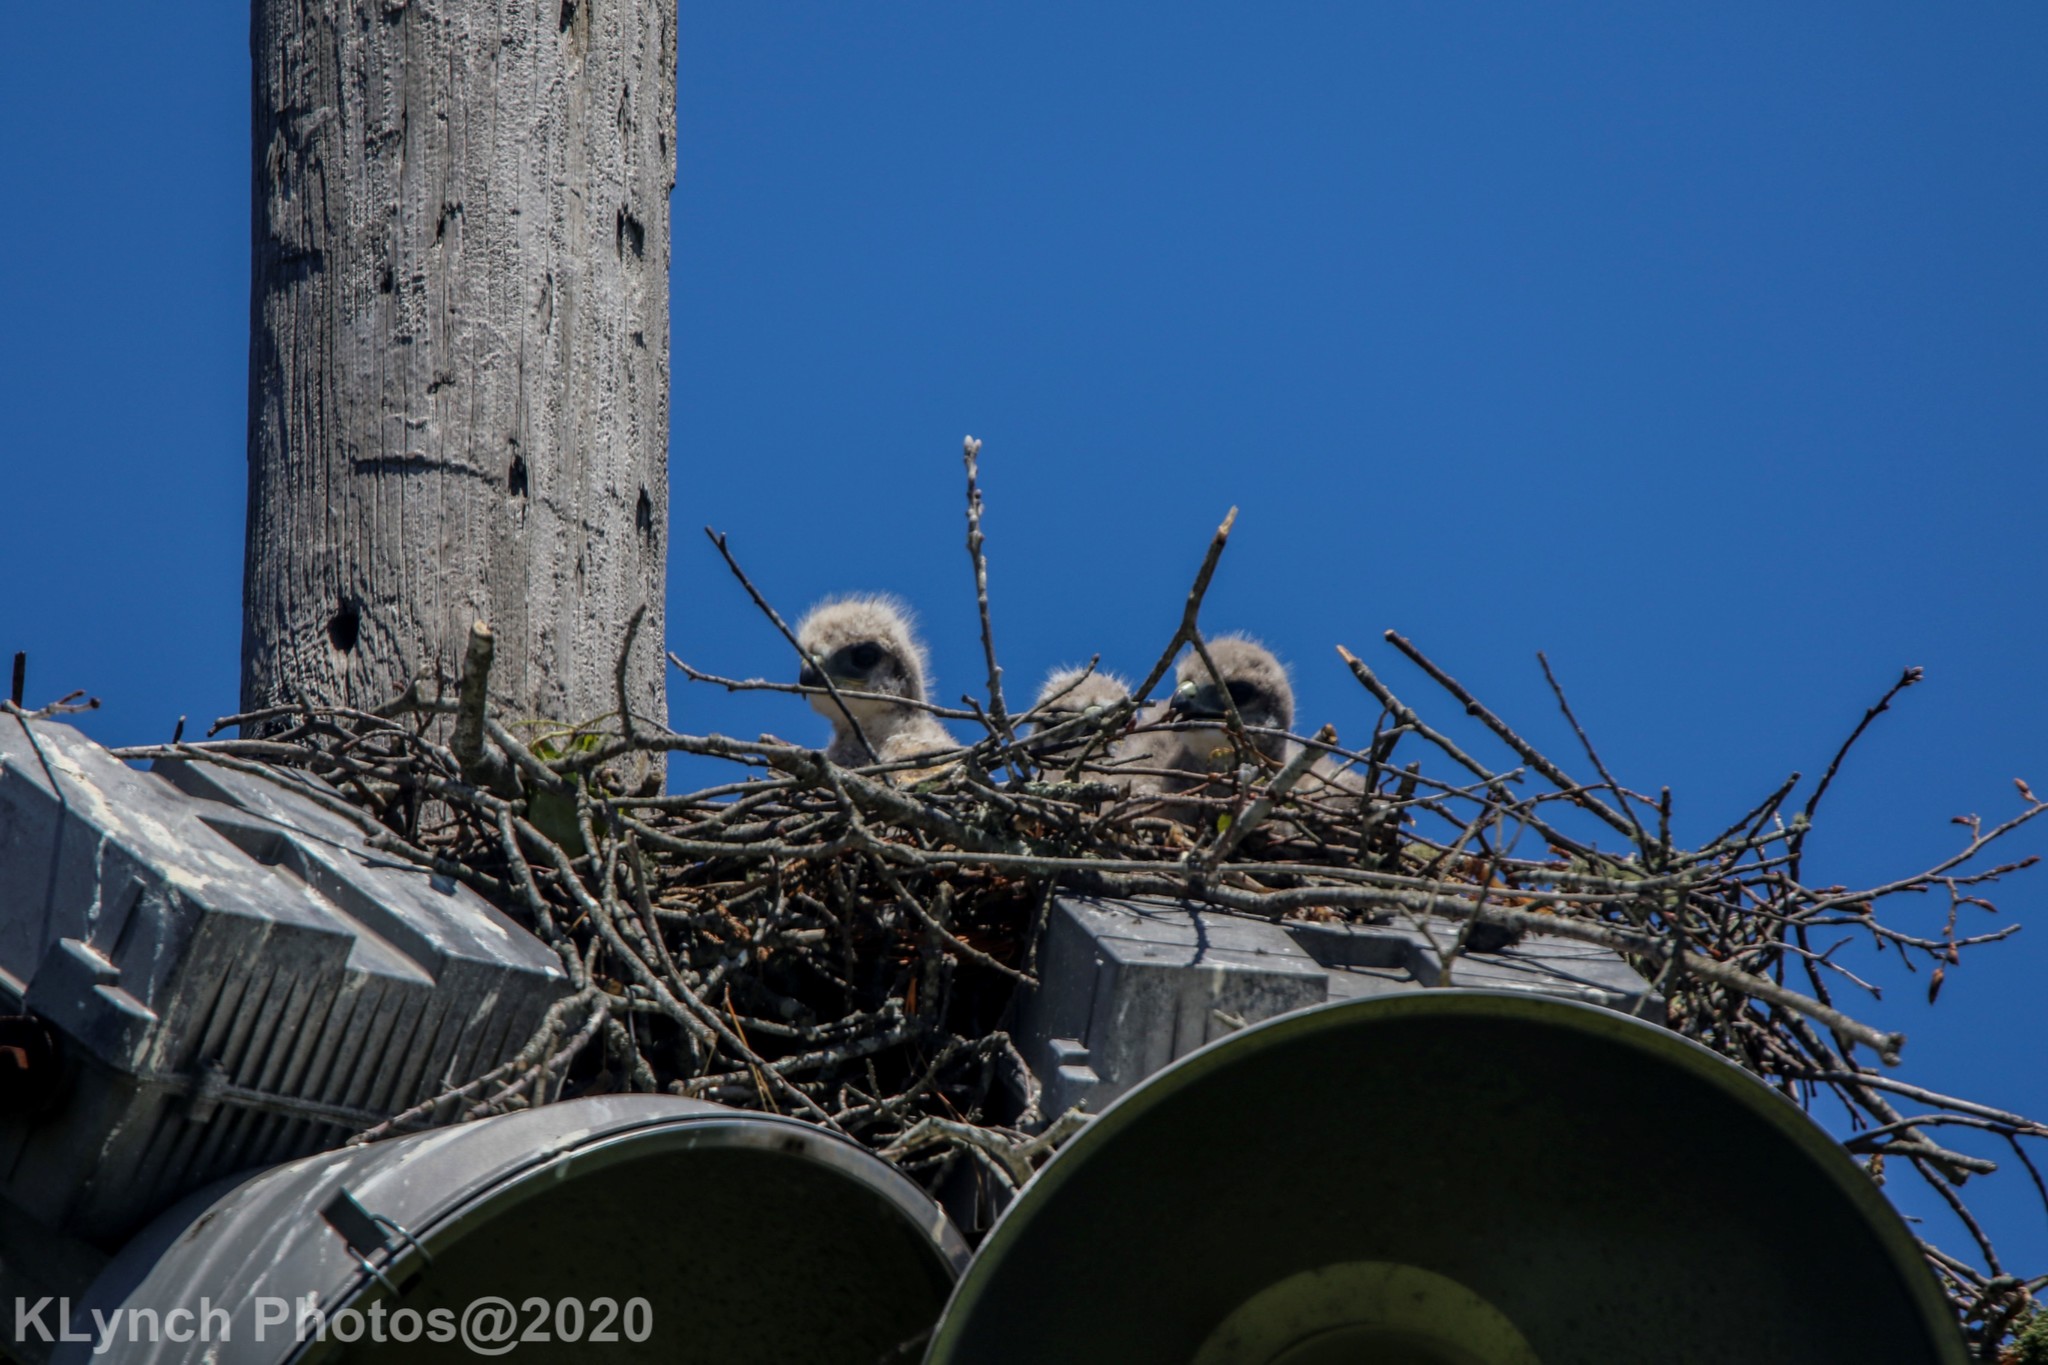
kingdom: Animalia
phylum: Chordata
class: Aves
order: Accipitriformes
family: Accipitridae
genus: Buteo
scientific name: Buteo jamaicensis
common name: Red-tailed hawk
